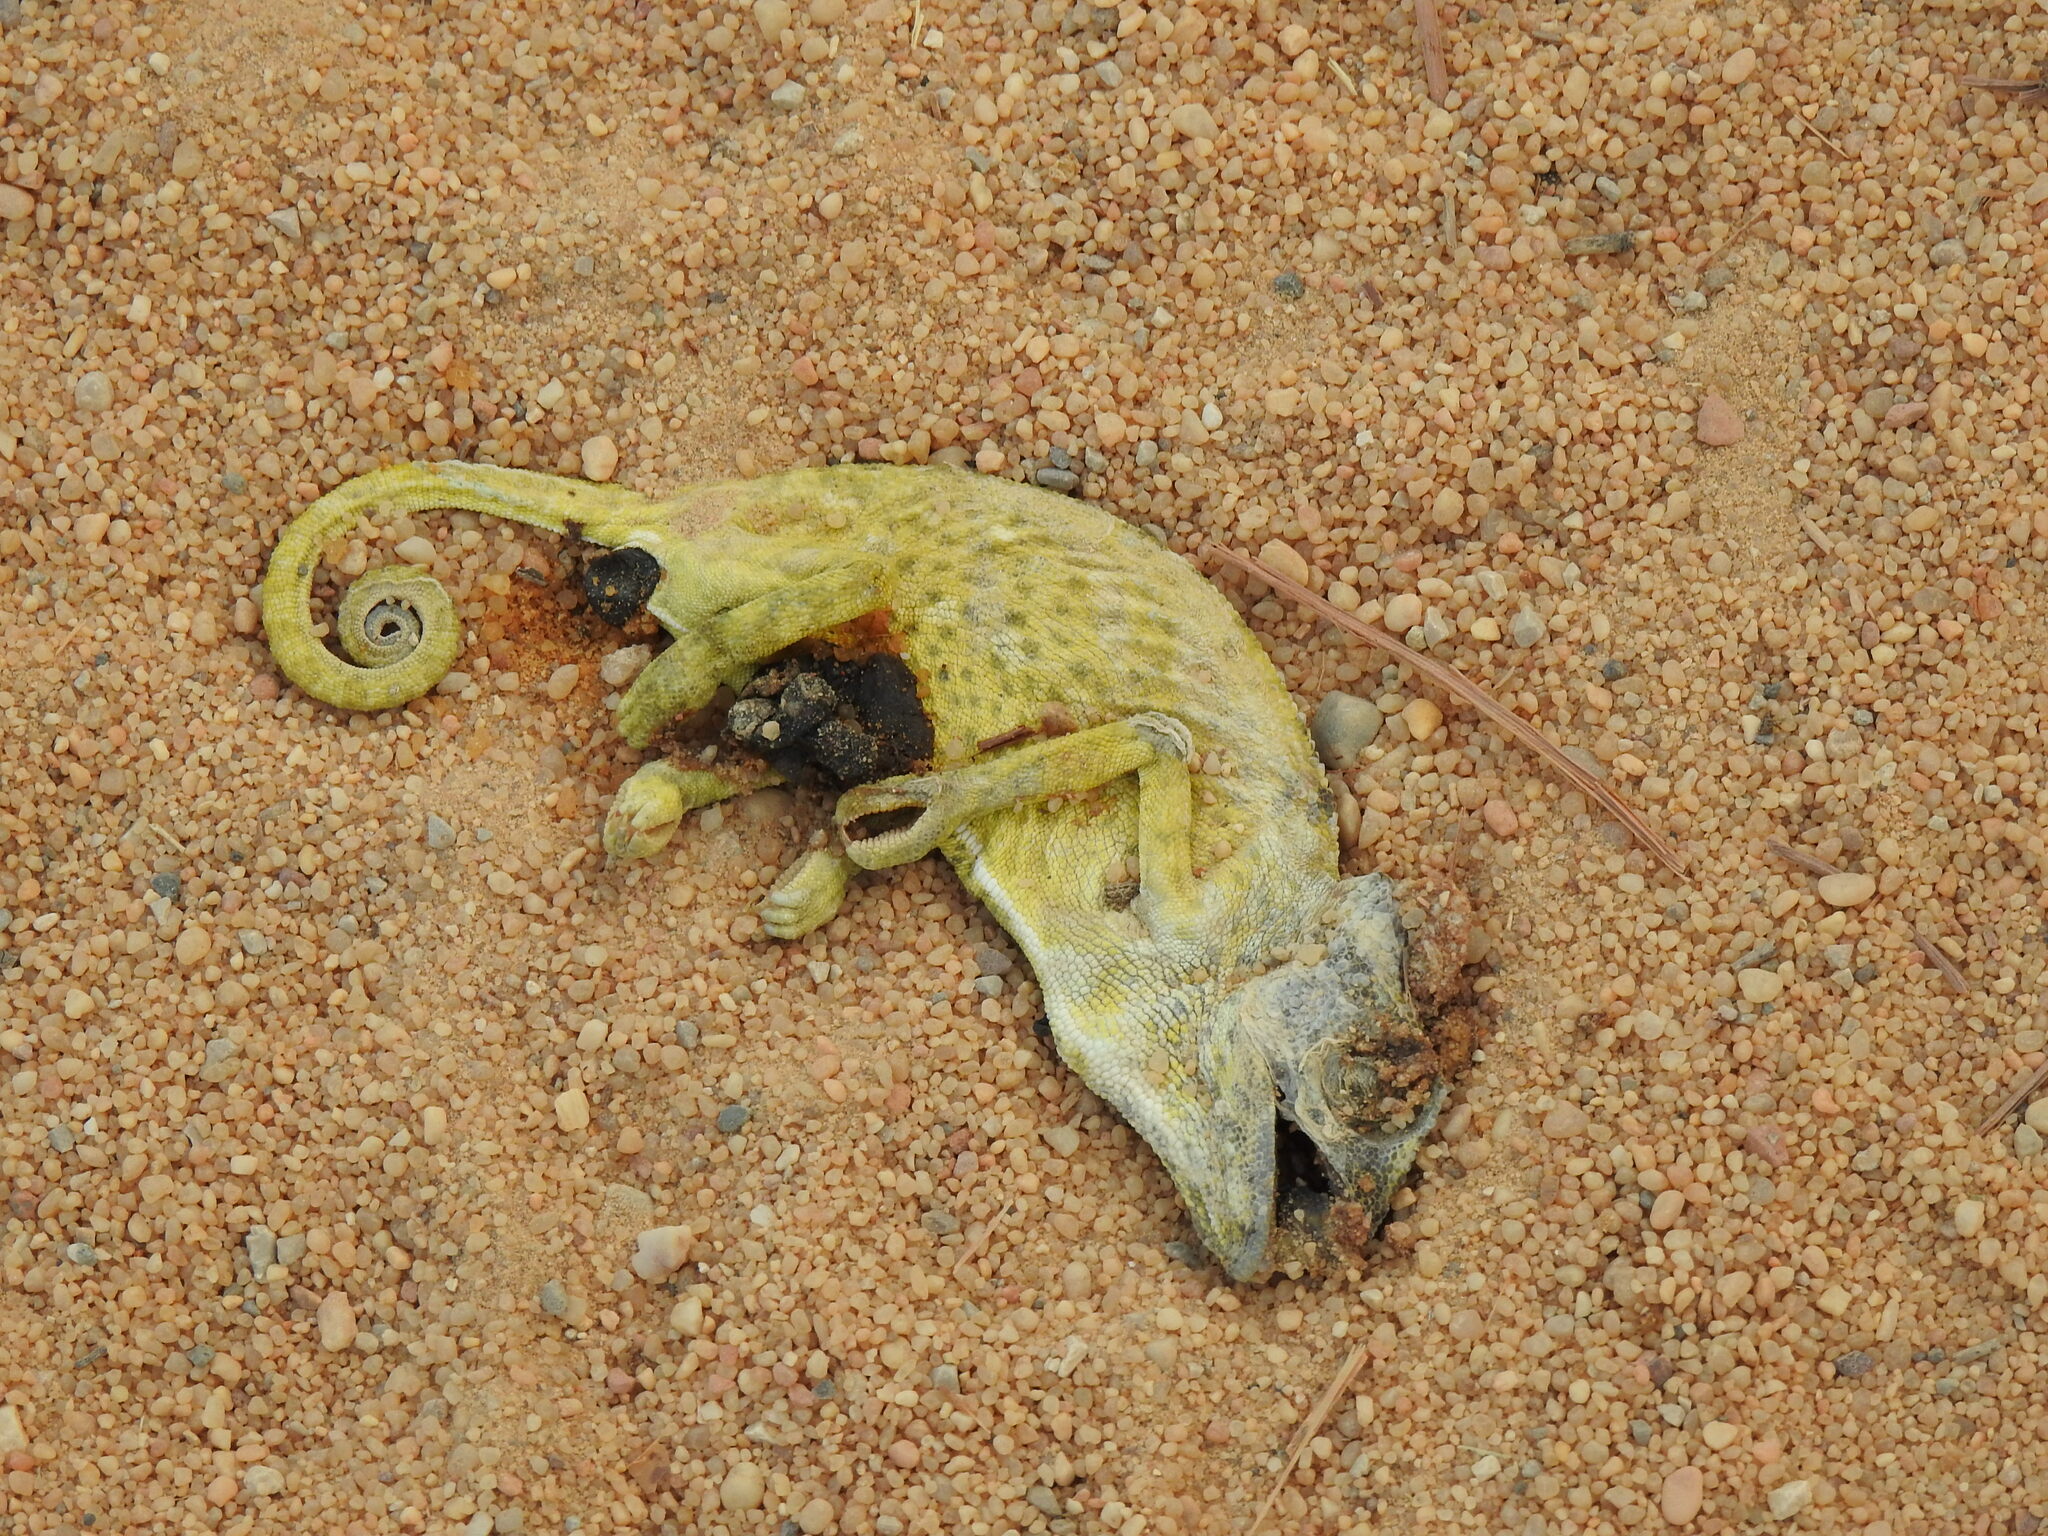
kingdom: Animalia
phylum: Chordata
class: Squamata
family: Chamaeleonidae
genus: Chamaeleo
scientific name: Chamaeleo chamaeleon
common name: Mediterranean chameleon
